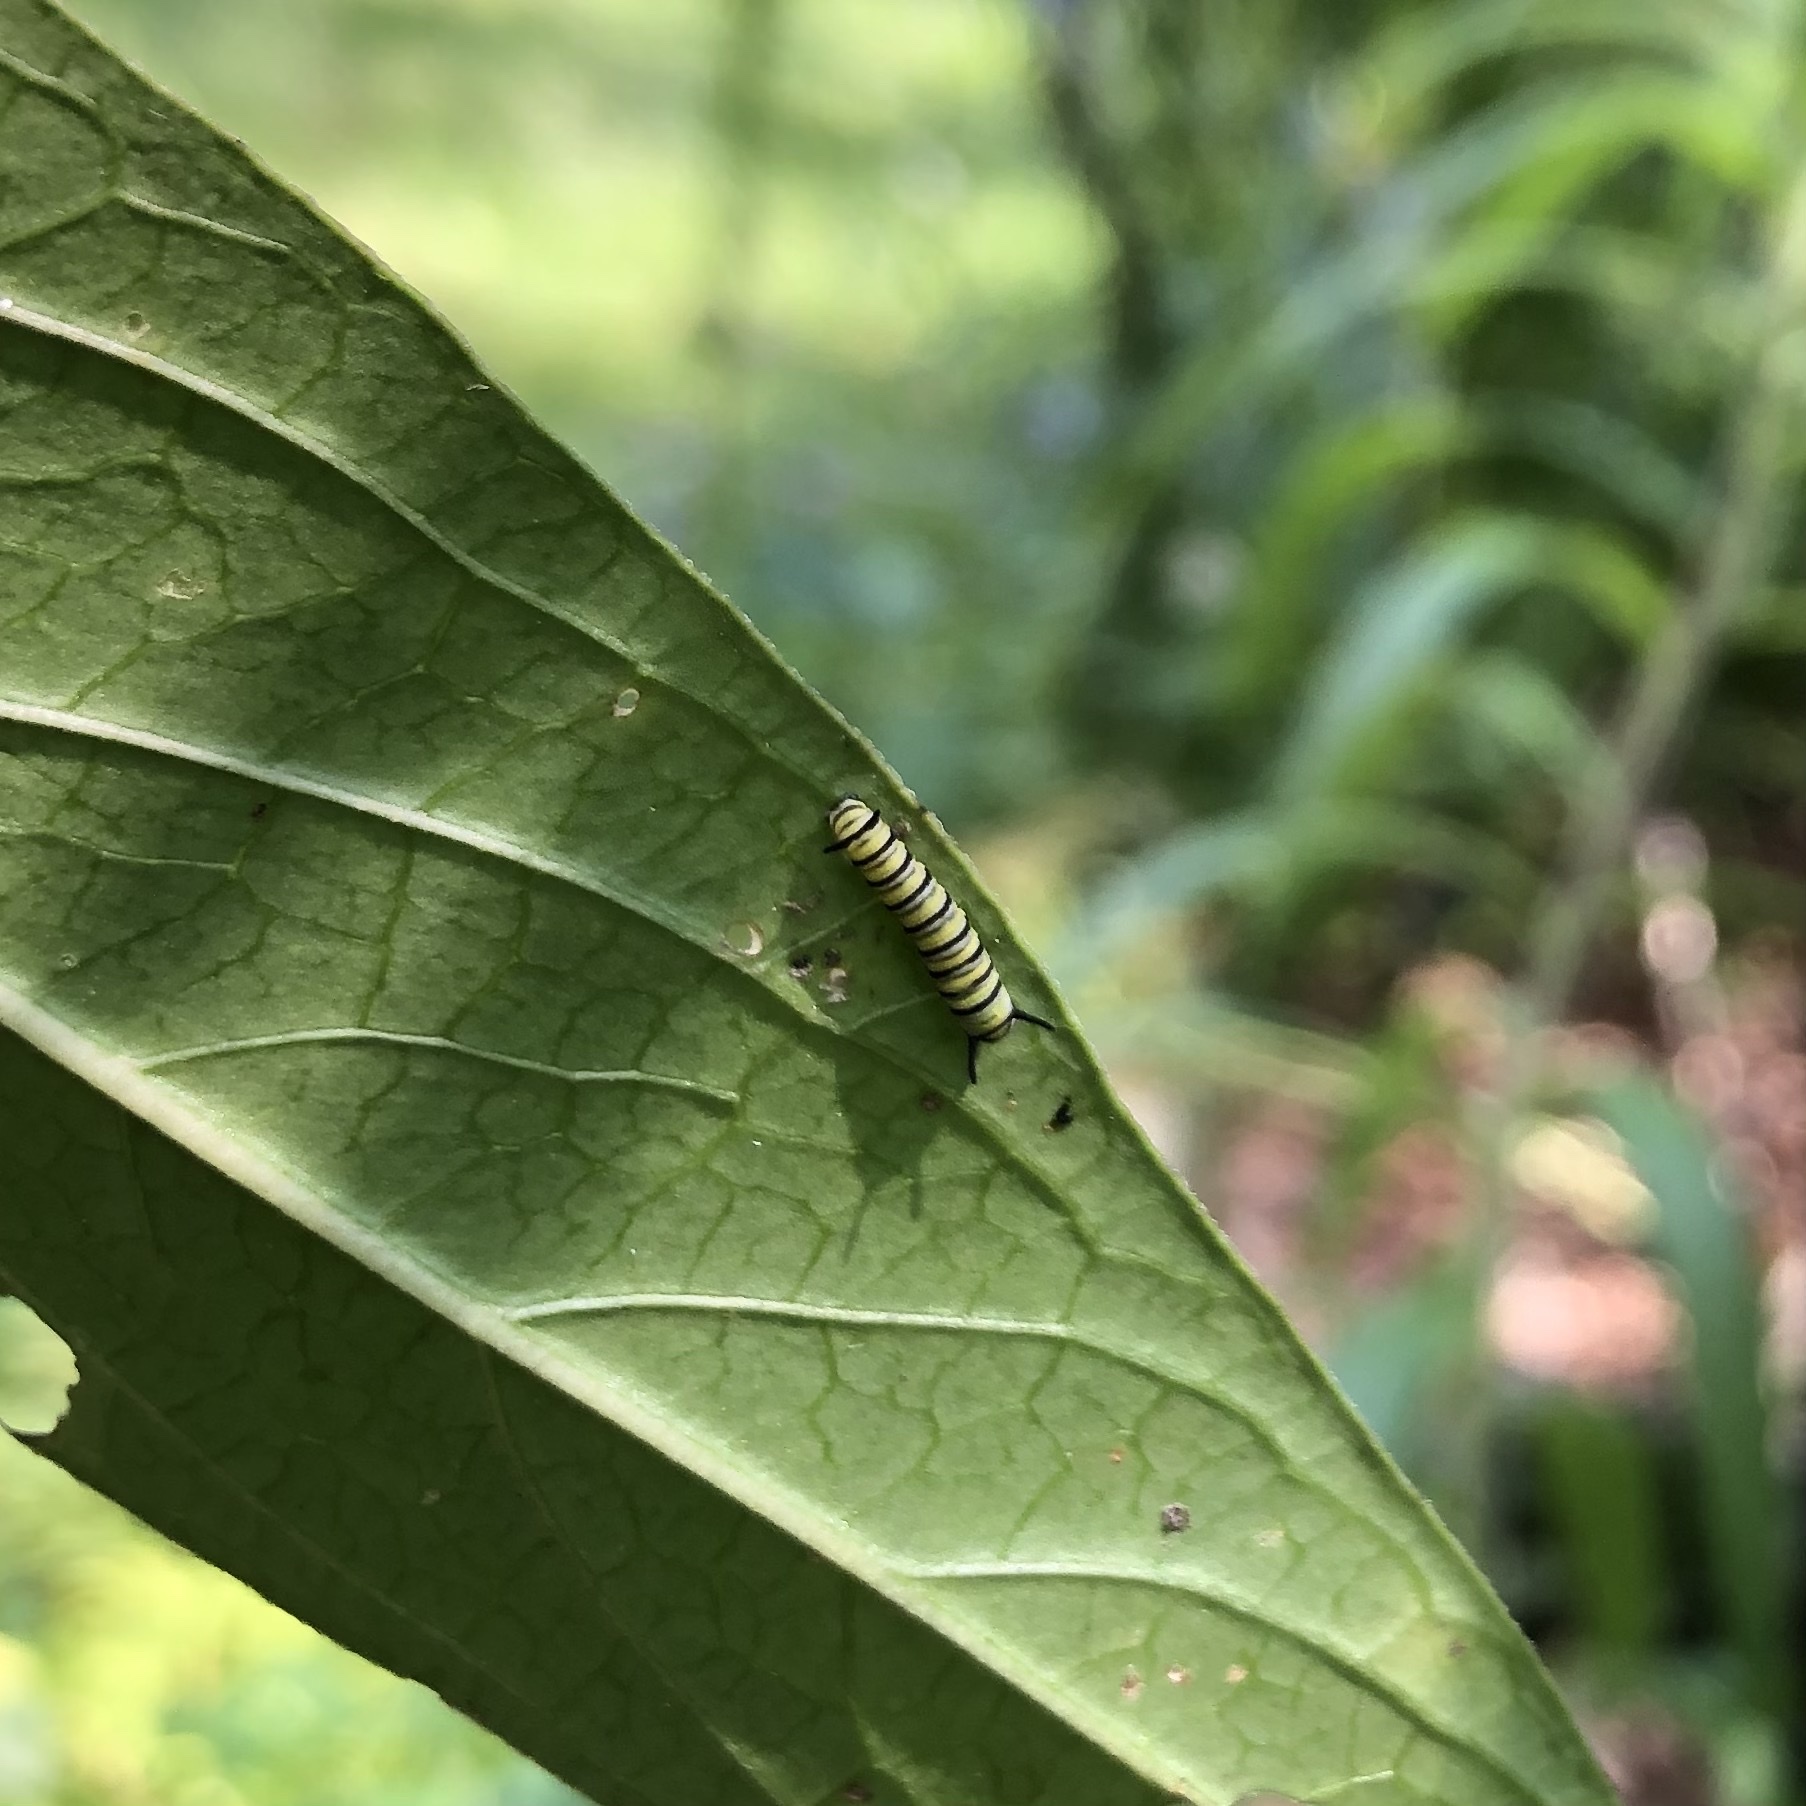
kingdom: Animalia
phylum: Arthropoda
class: Insecta
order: Lepidoptera
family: Nymphalidae
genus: Danaus
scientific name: Danaus plexippus
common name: Monarch
